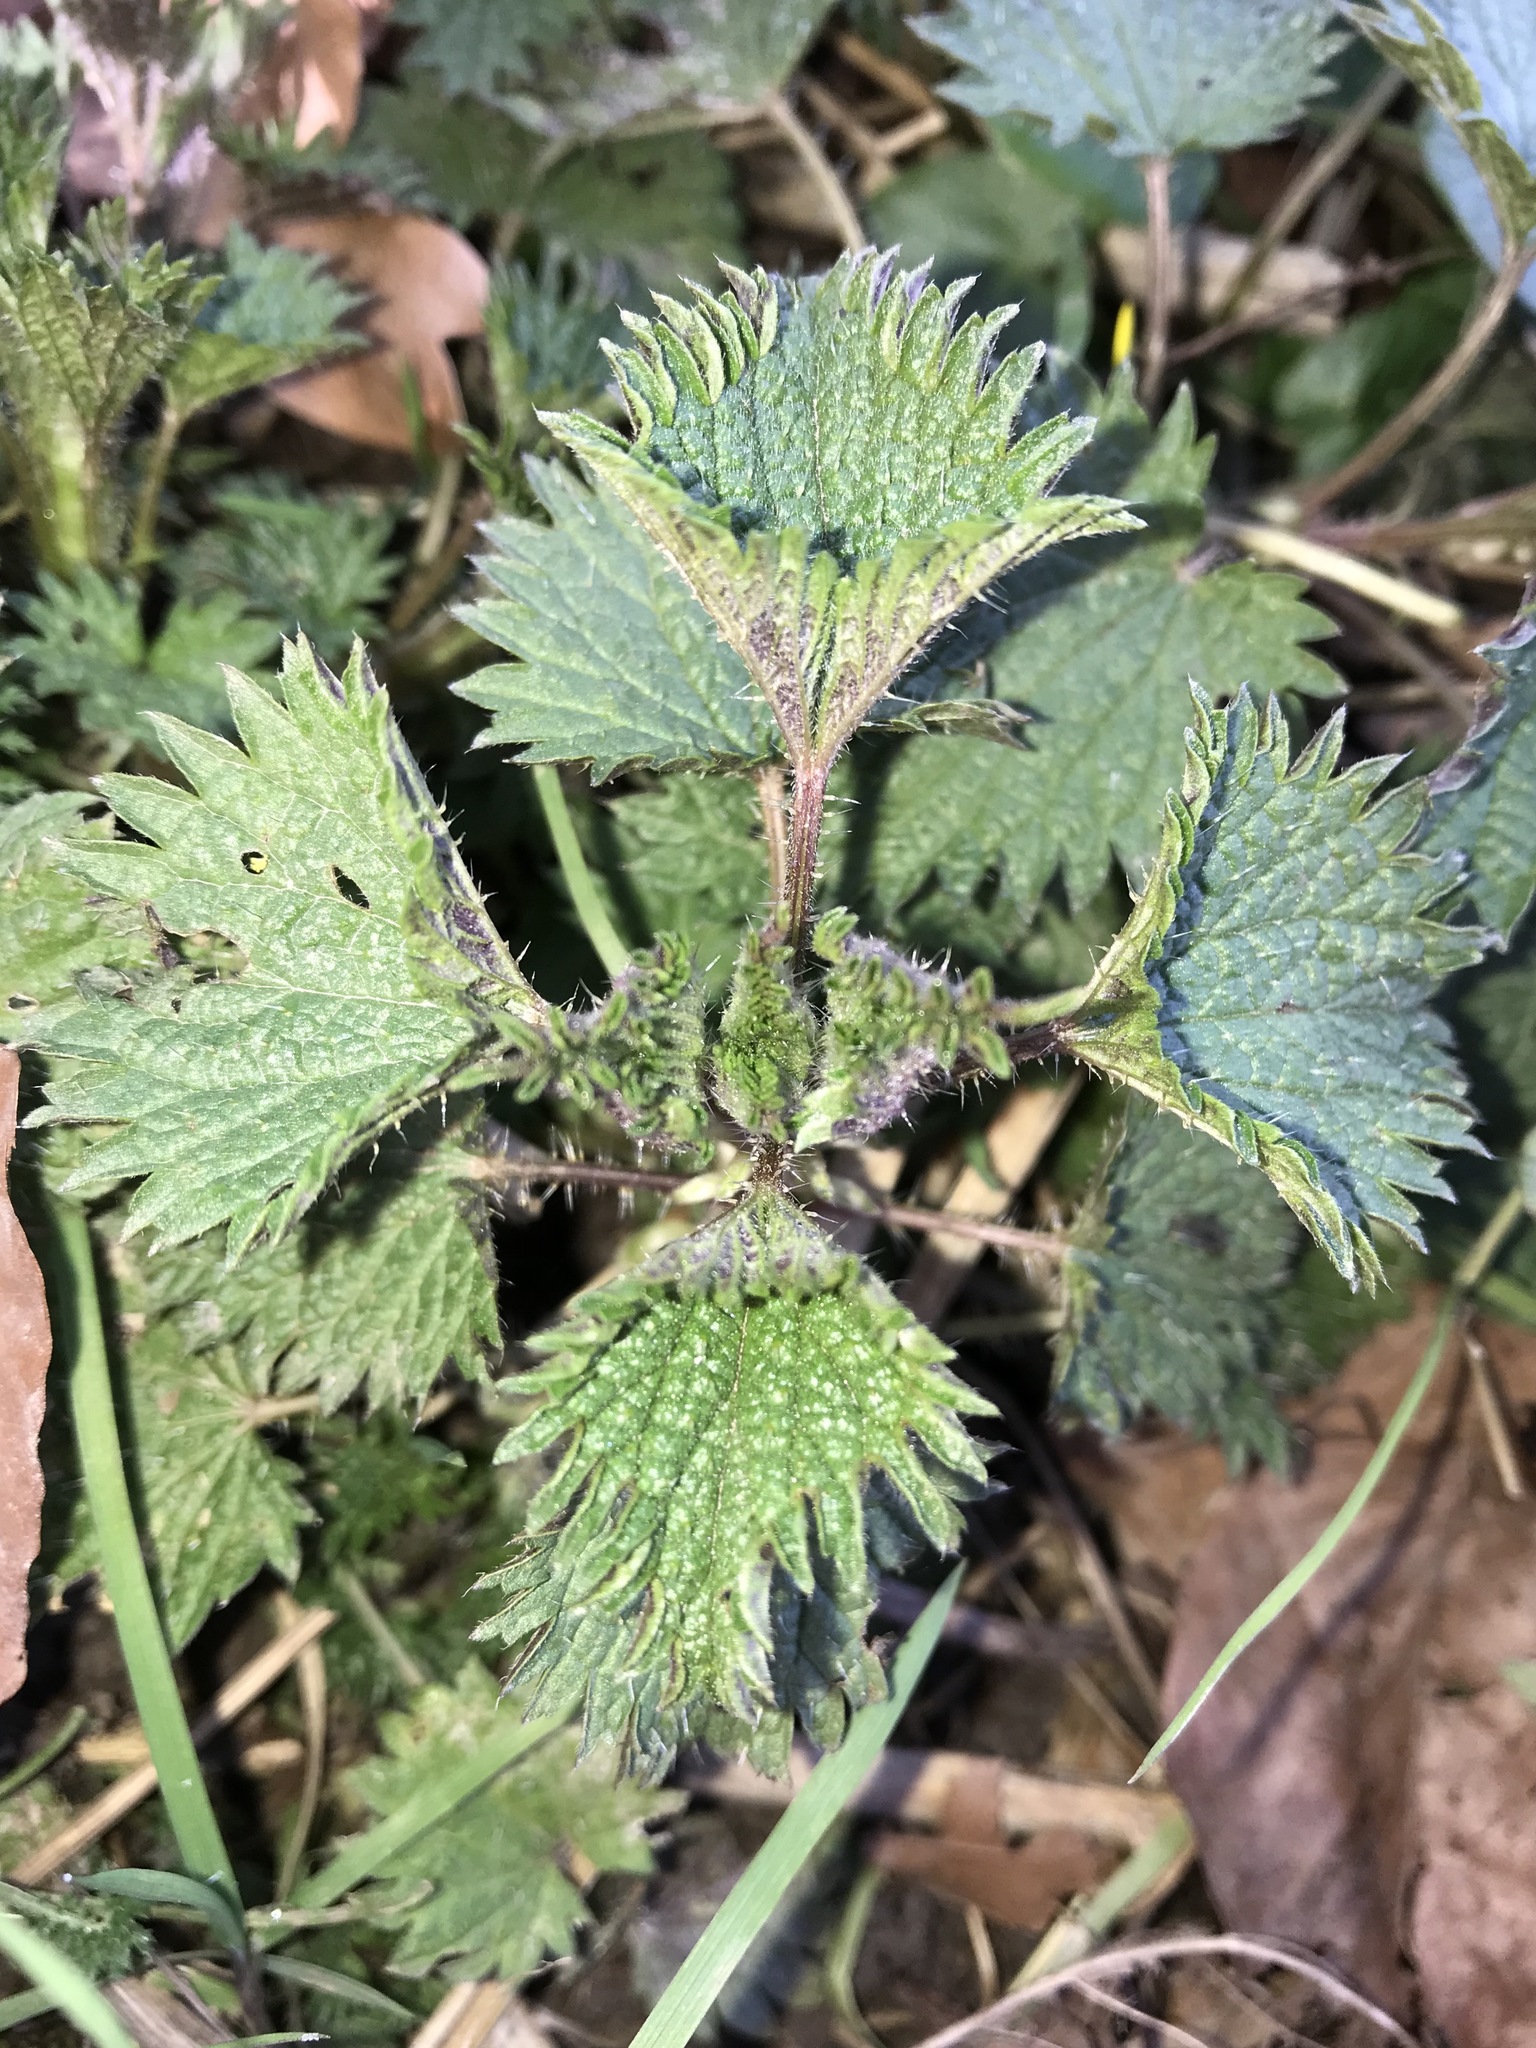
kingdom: Plantae
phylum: Tracheophyta
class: Magnoliopsida
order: Rosales
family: Urticaceae
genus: Urtica
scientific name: Urtica dioica
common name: Common nettle
